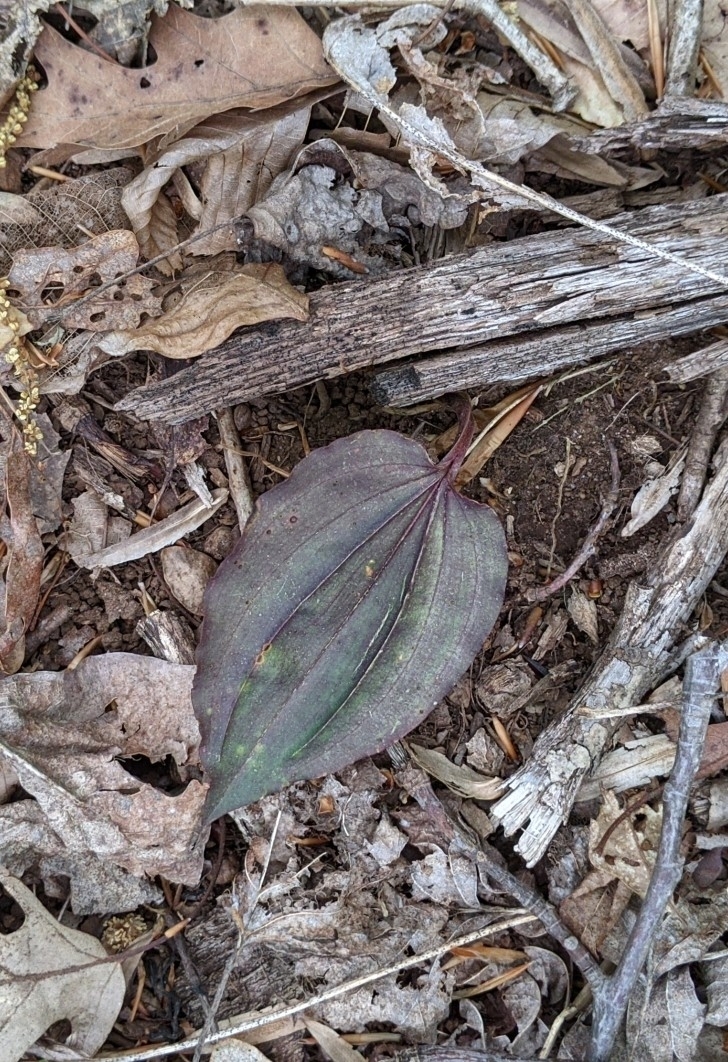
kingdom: Plantae
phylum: Tracheophyta
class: Liliopsida
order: Asparagales
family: Orchidaceae
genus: Tipularia
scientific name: Tipularia discolor
